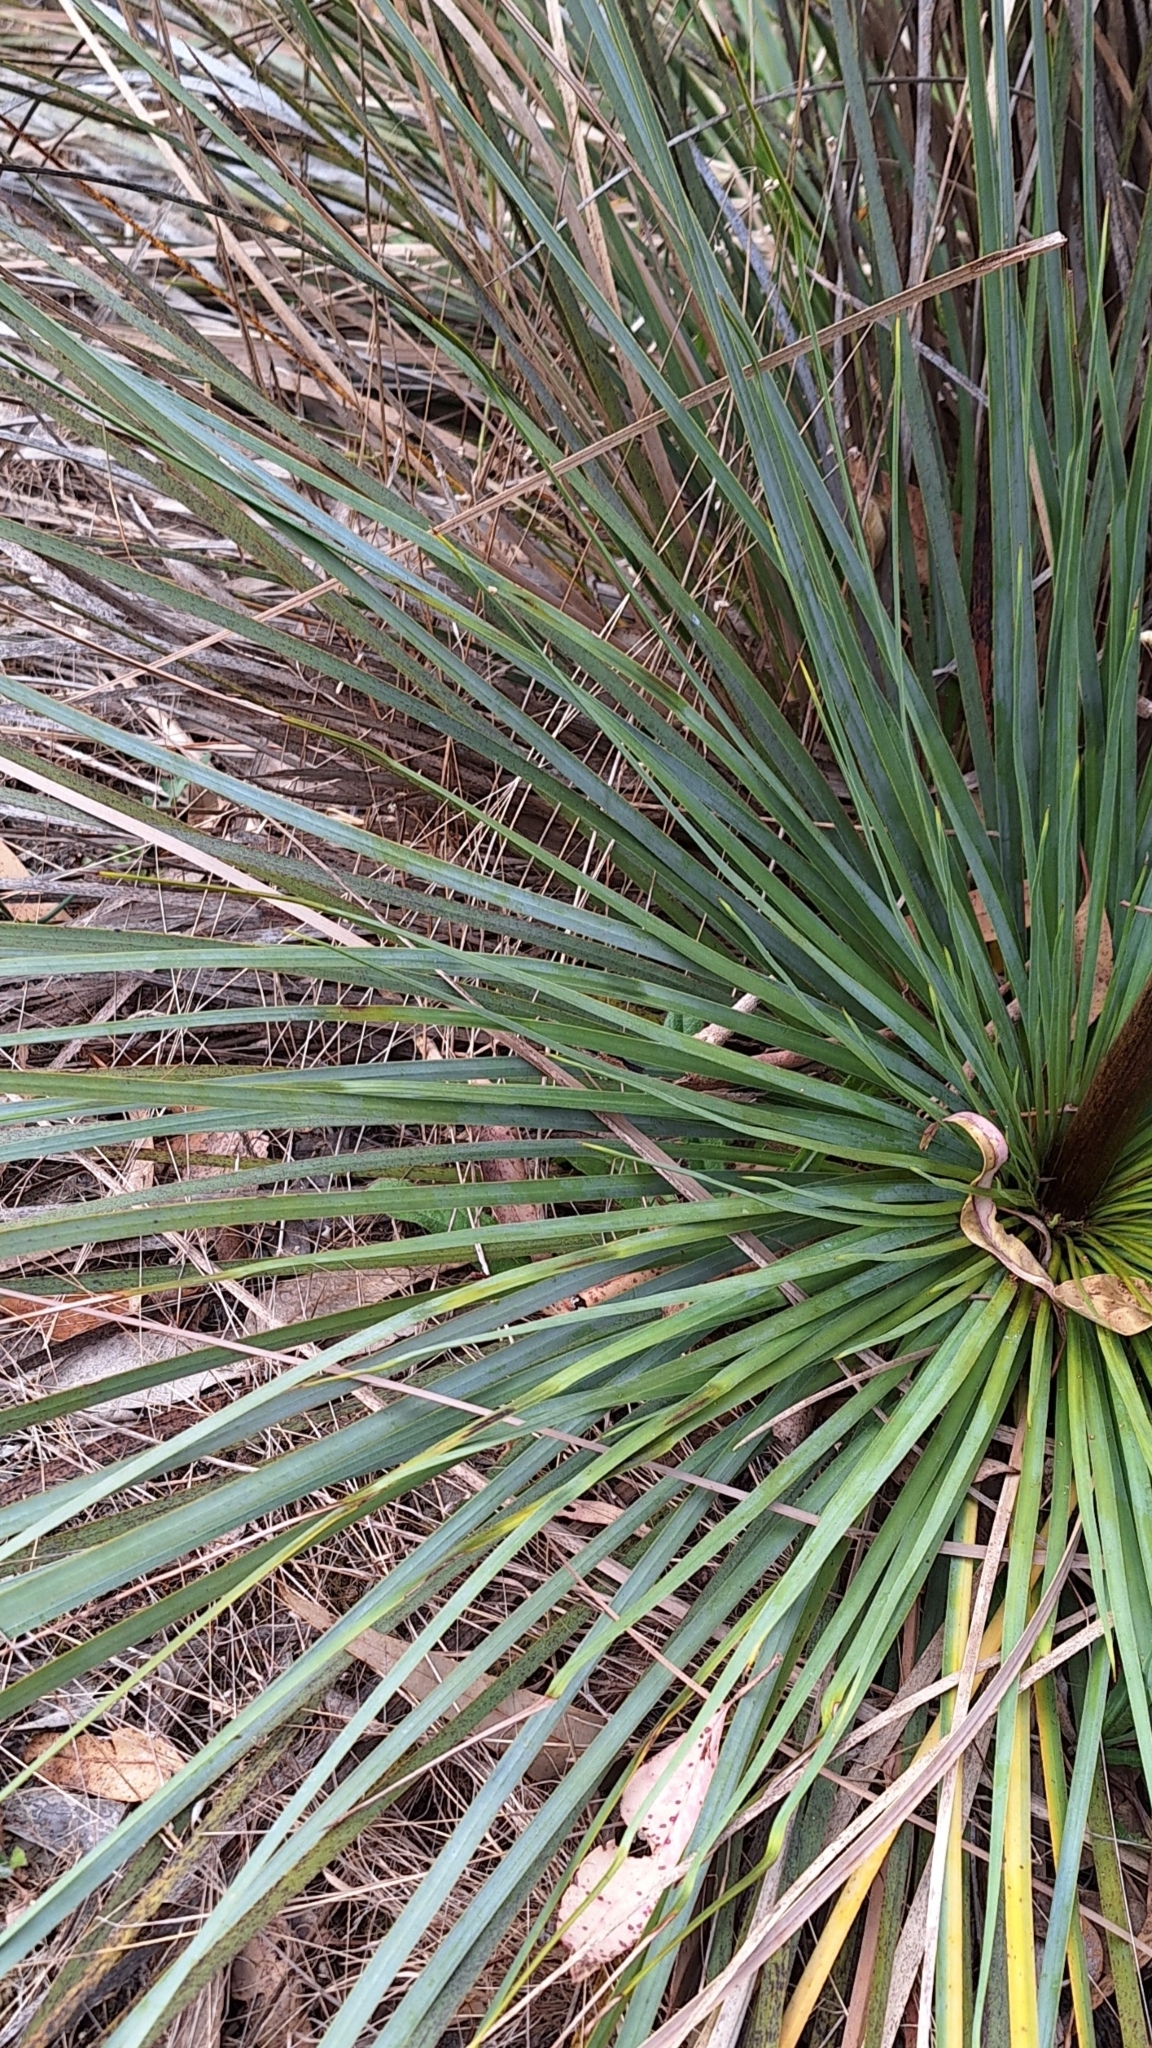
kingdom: Plantae
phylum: Tracheophyta
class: Liliopsida
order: Asparagales
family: Asphodelaceae
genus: Xanthorrhoea
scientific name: Xanthorrhoea semiplana
